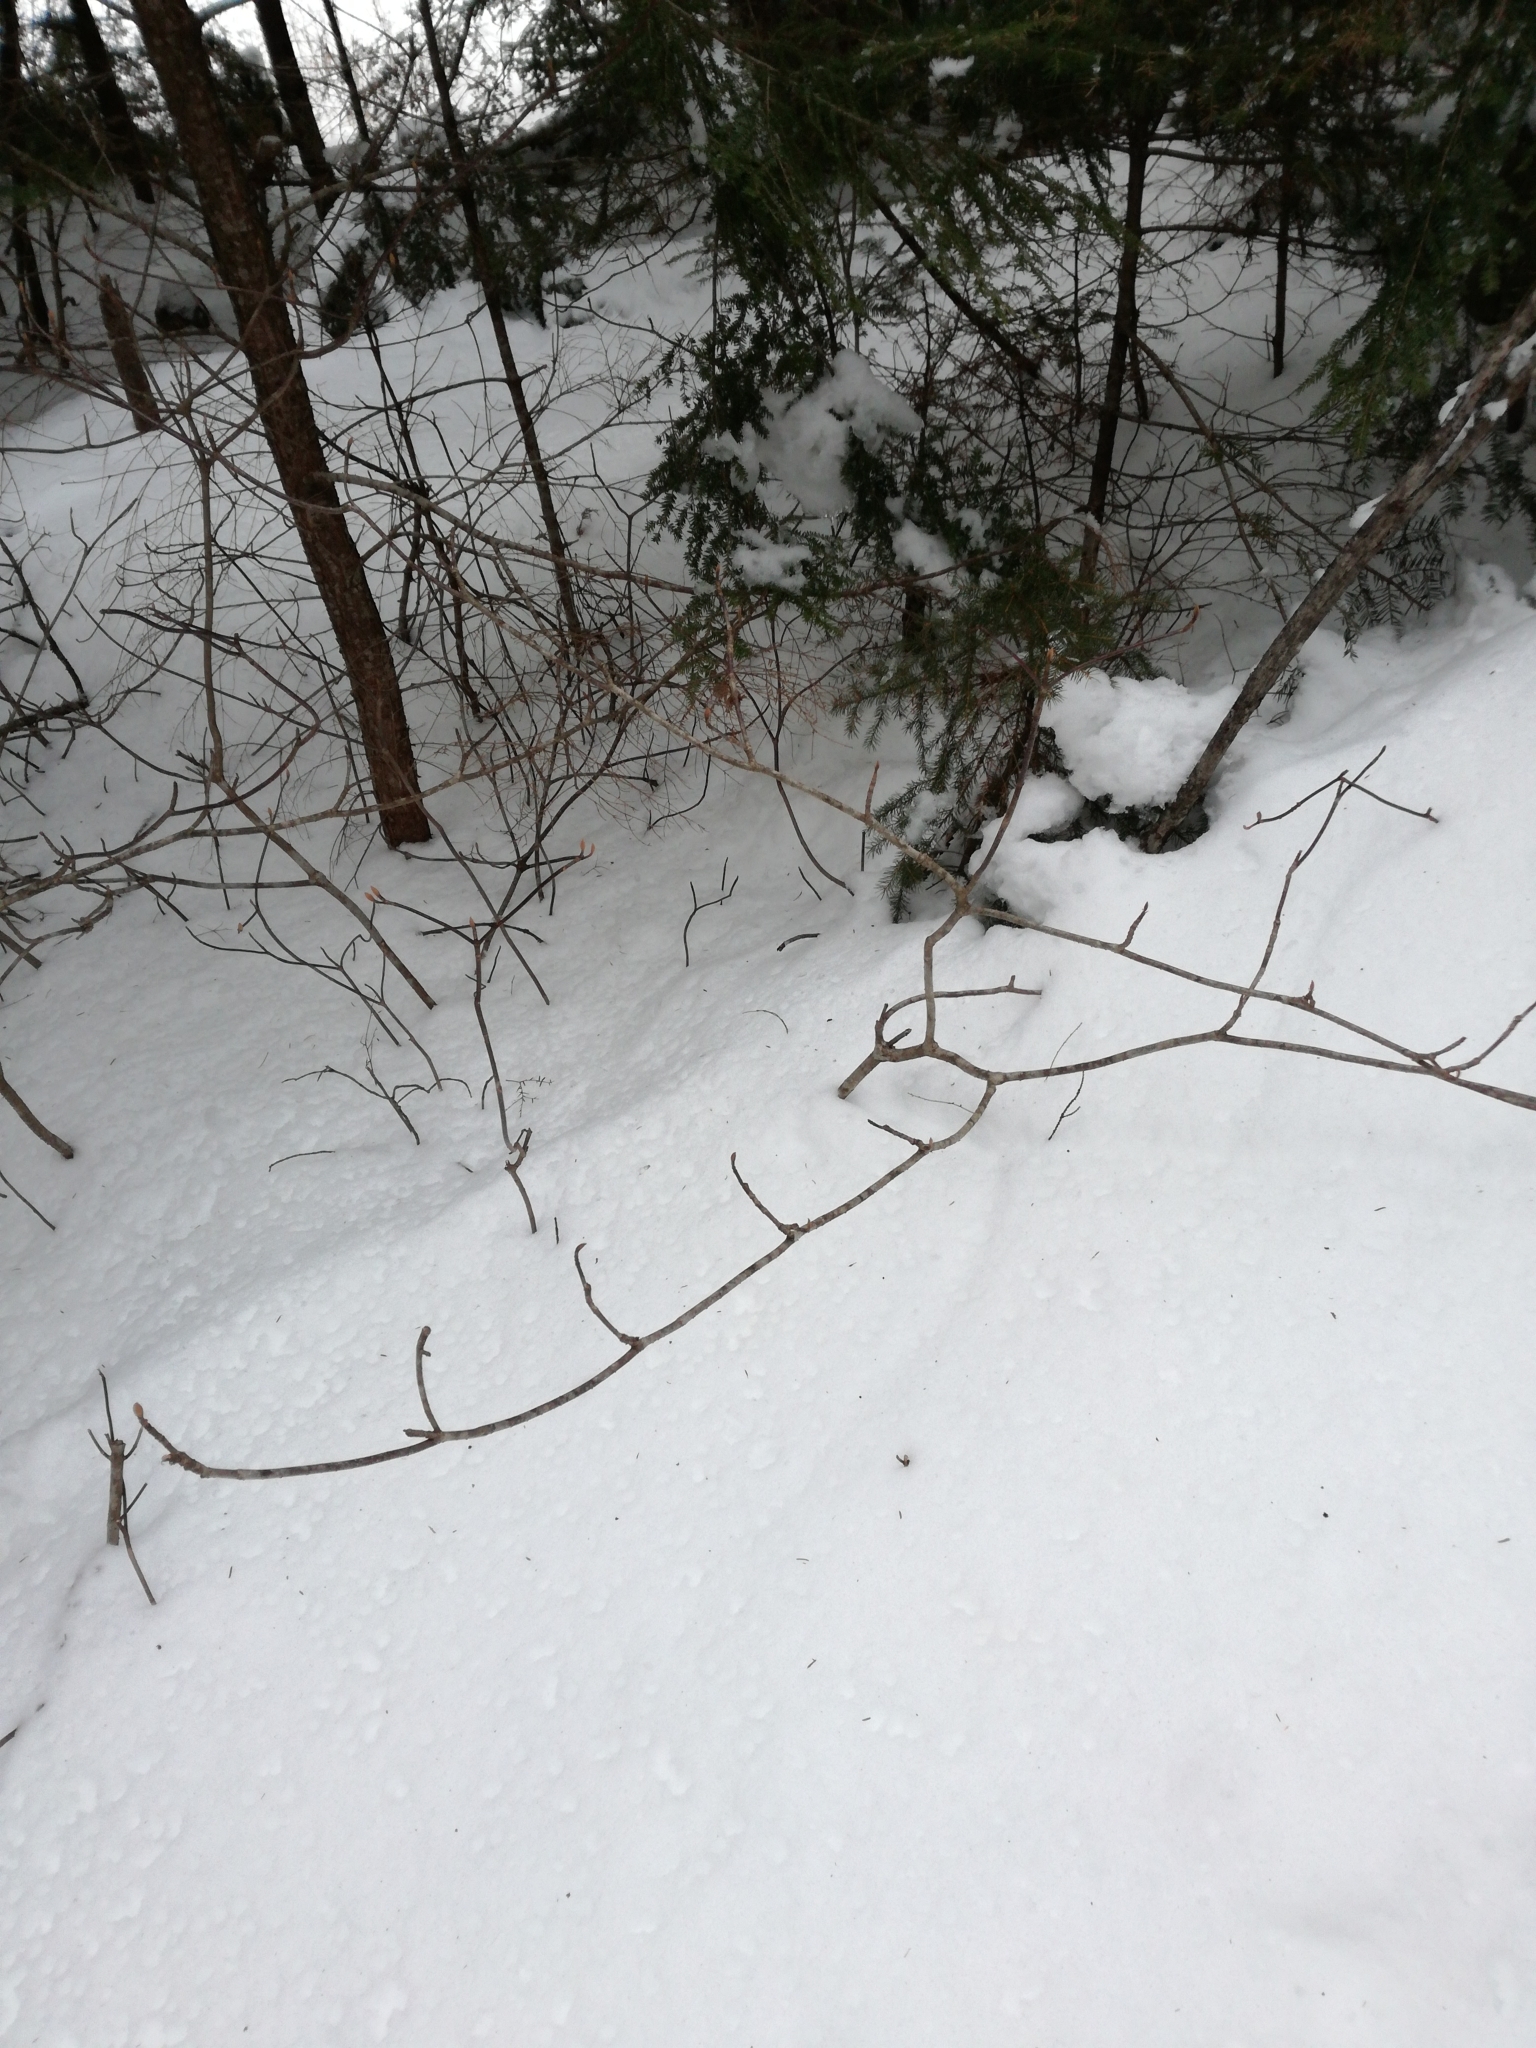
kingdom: Plantae
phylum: Tracheophyta
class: Magnoliopsida
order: Dipsacales
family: Viburnaceae
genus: Viburnum
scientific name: Viburnum lantanoides
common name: Hobblebush
